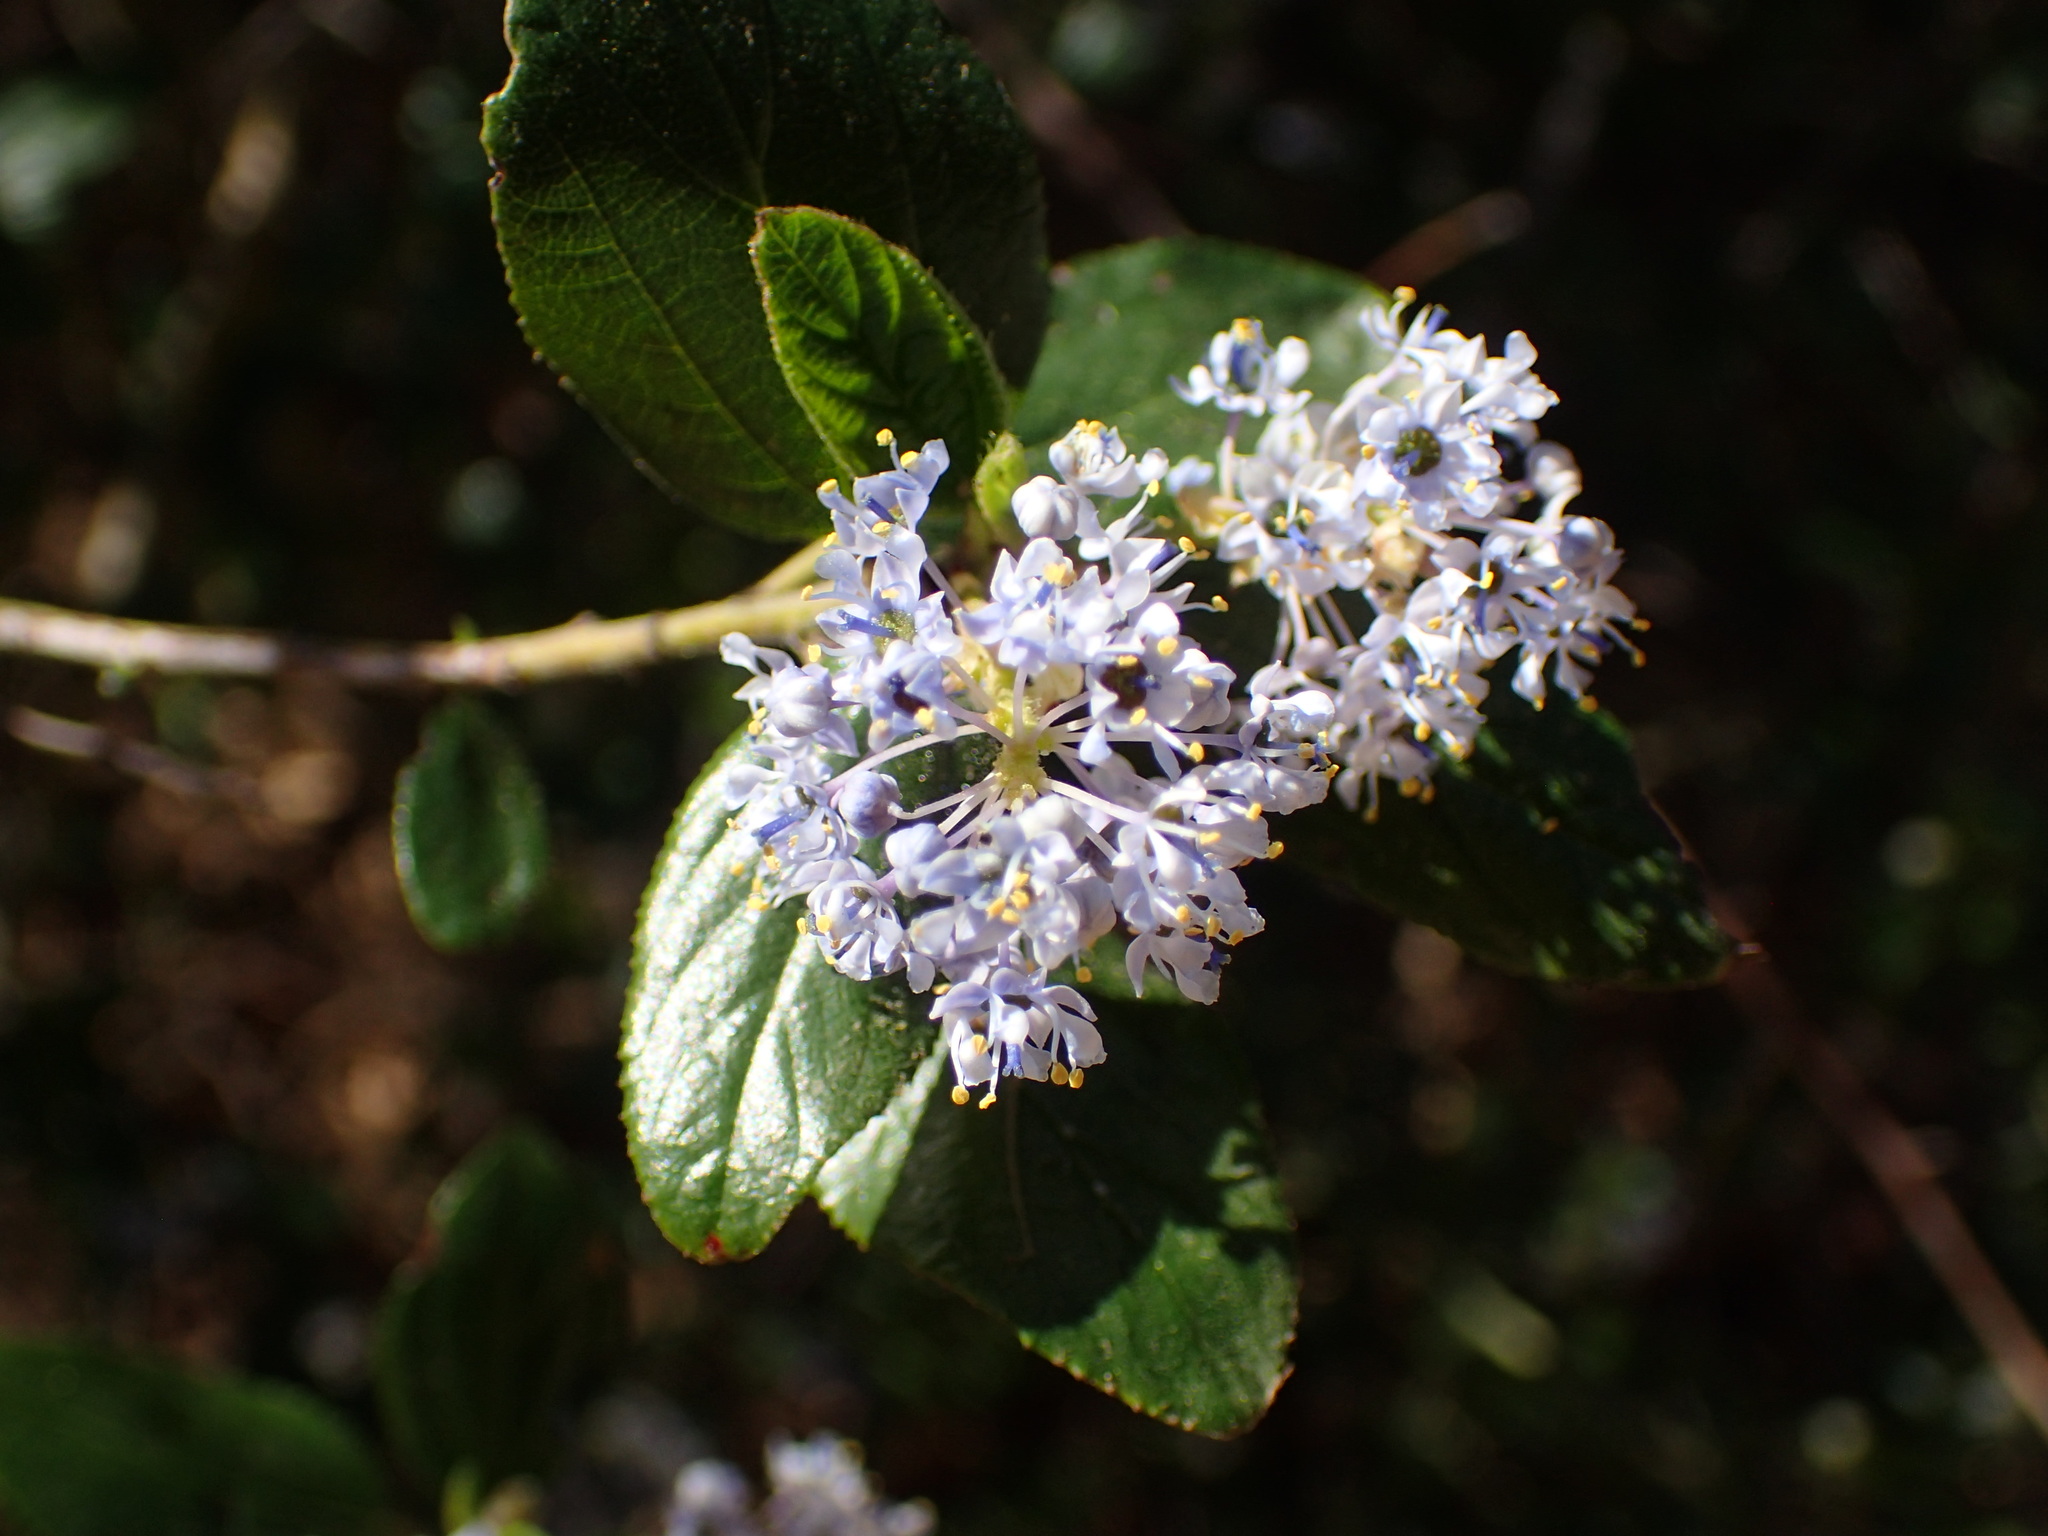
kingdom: Plantae
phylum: Tracheophyta
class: Magnoliopsida
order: Rosales
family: Rhamnaceae
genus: Ceanothus
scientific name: Ceanothus oliganthus
